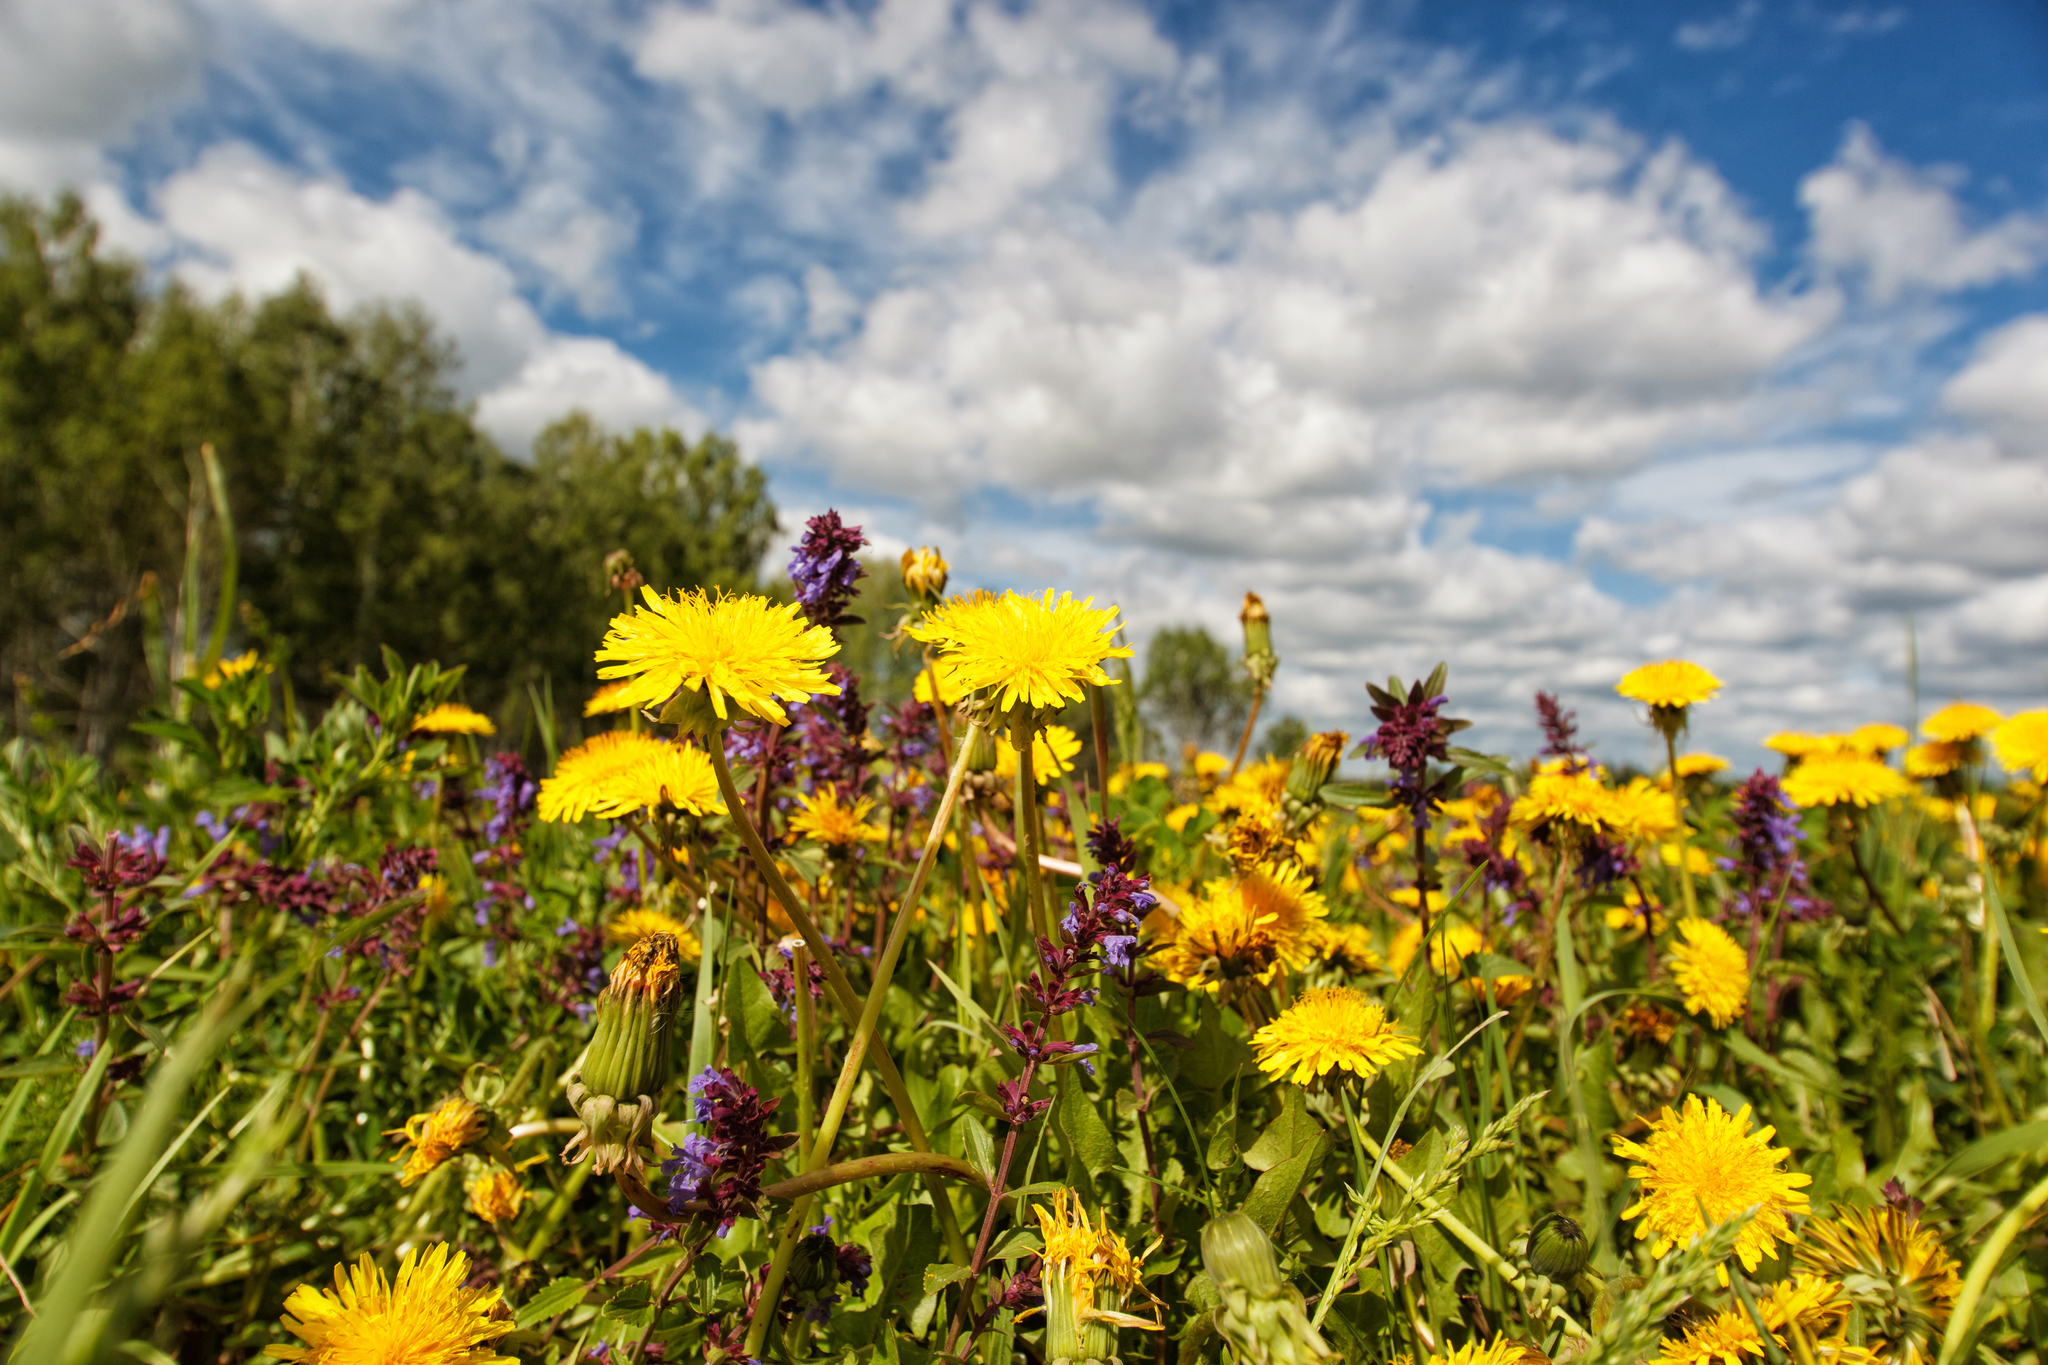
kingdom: Plantae
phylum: Tracheophyta
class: Magnoliopsida
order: Asterales
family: Asteraceae
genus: Taraxacum
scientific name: Taraxacum officinale
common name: Common dandelion
